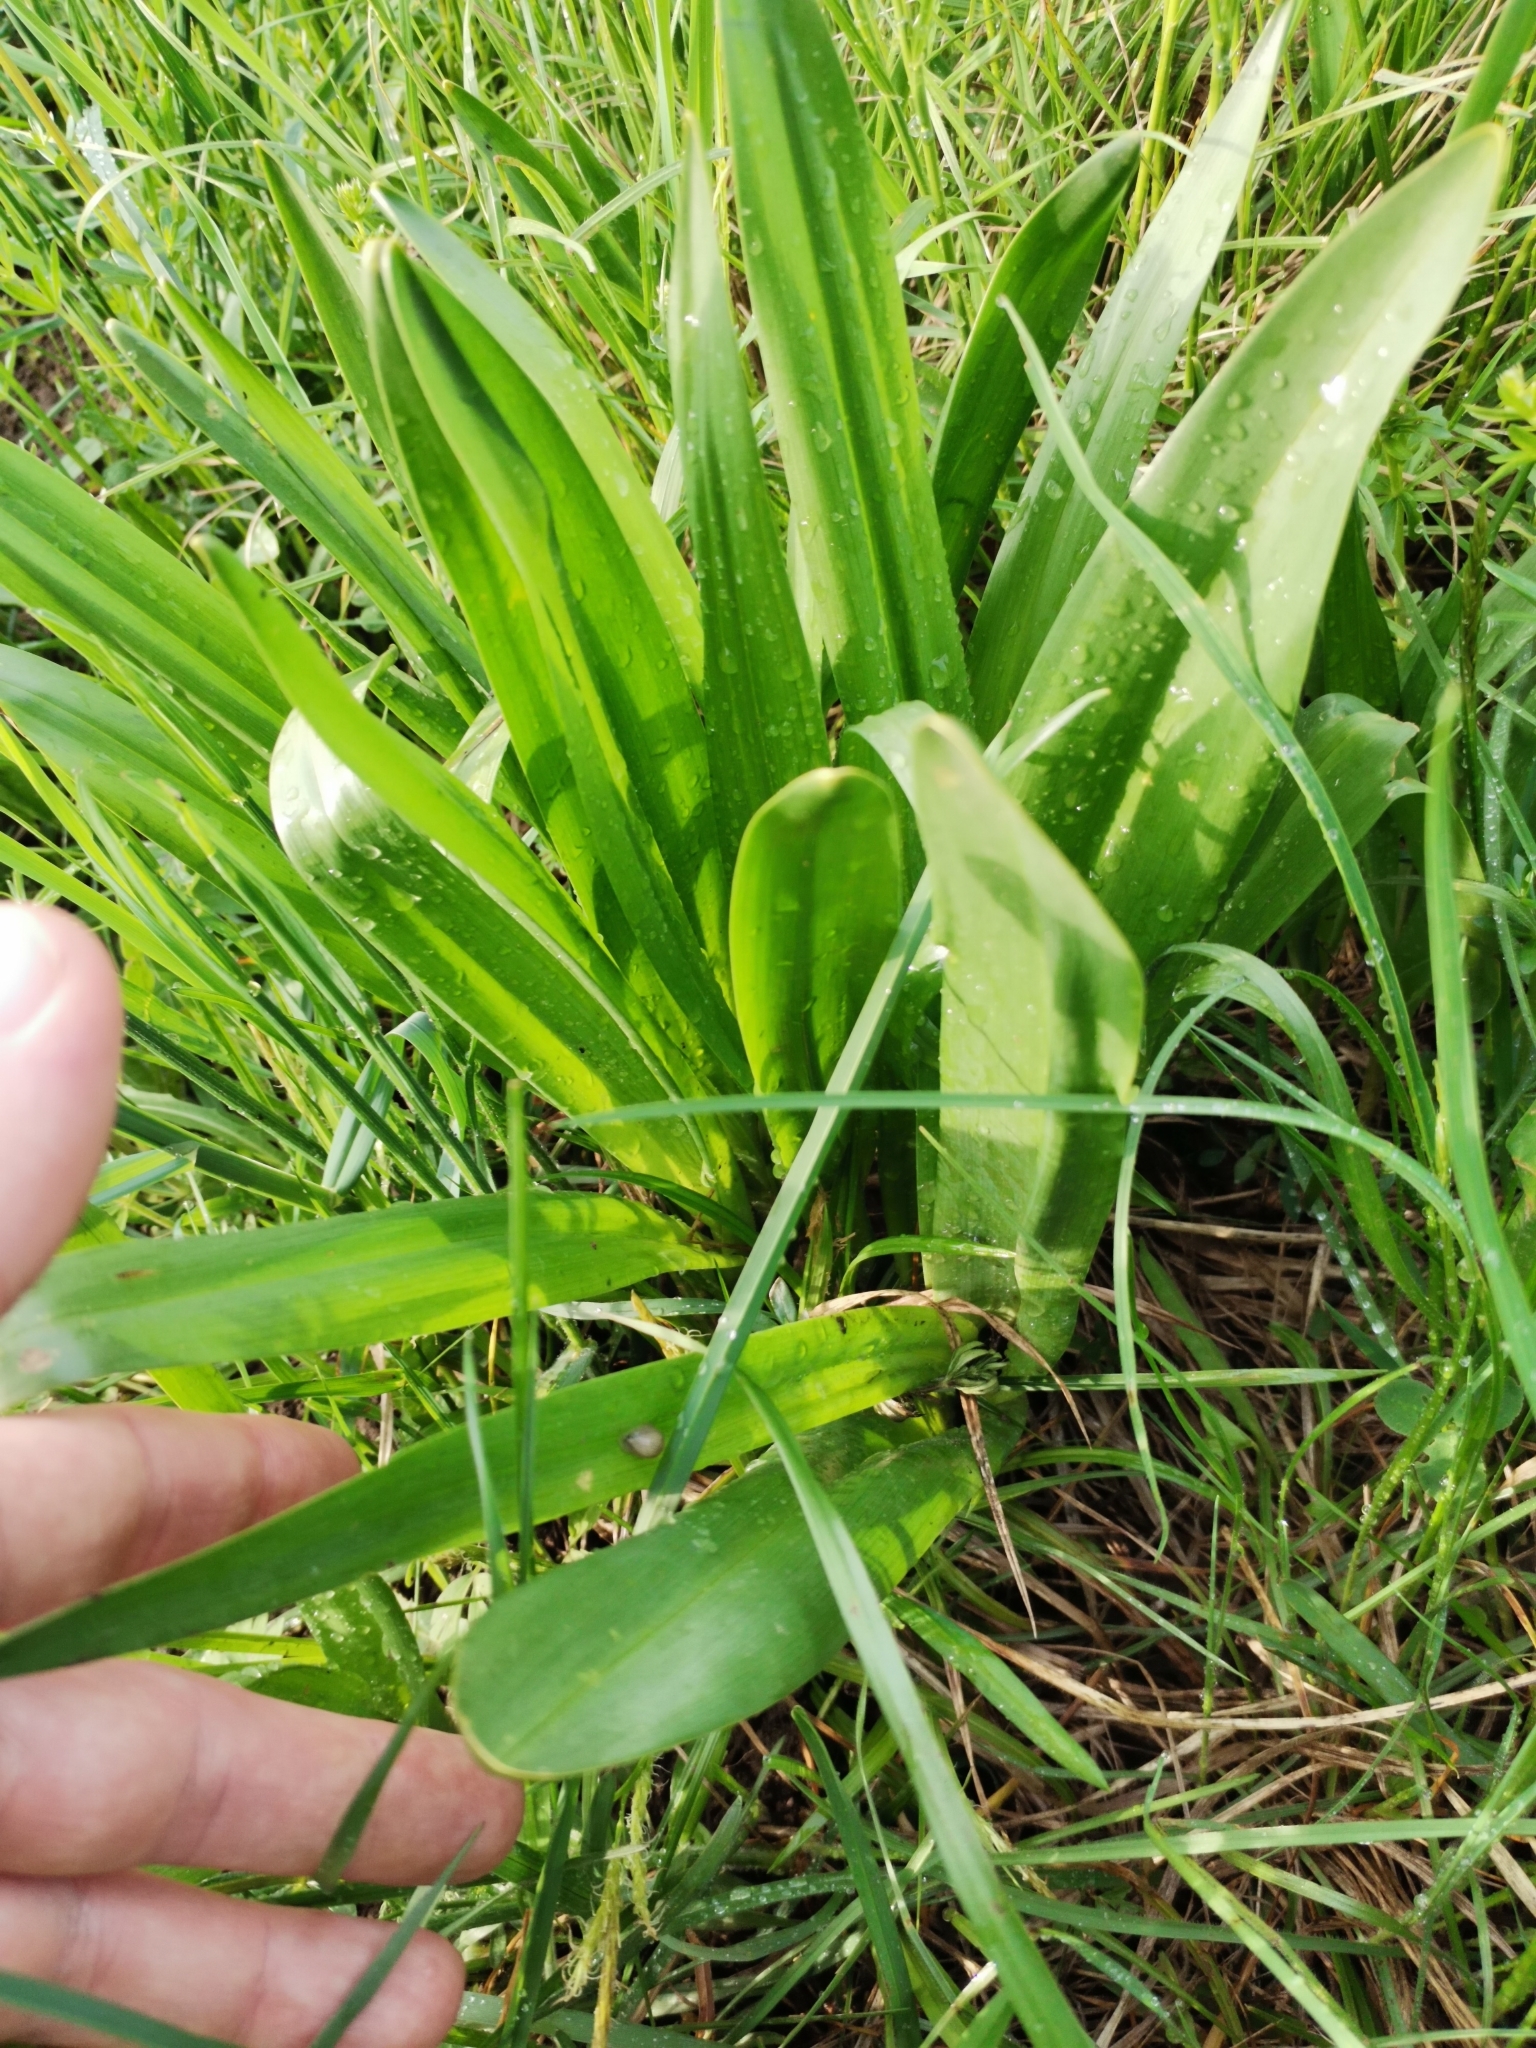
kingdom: Plantae
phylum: Tracheophyta
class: Liliopsida
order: Liliales
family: Colchicaceae
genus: Colchicum
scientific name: Colchicum autumnale
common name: Autumn crocus
